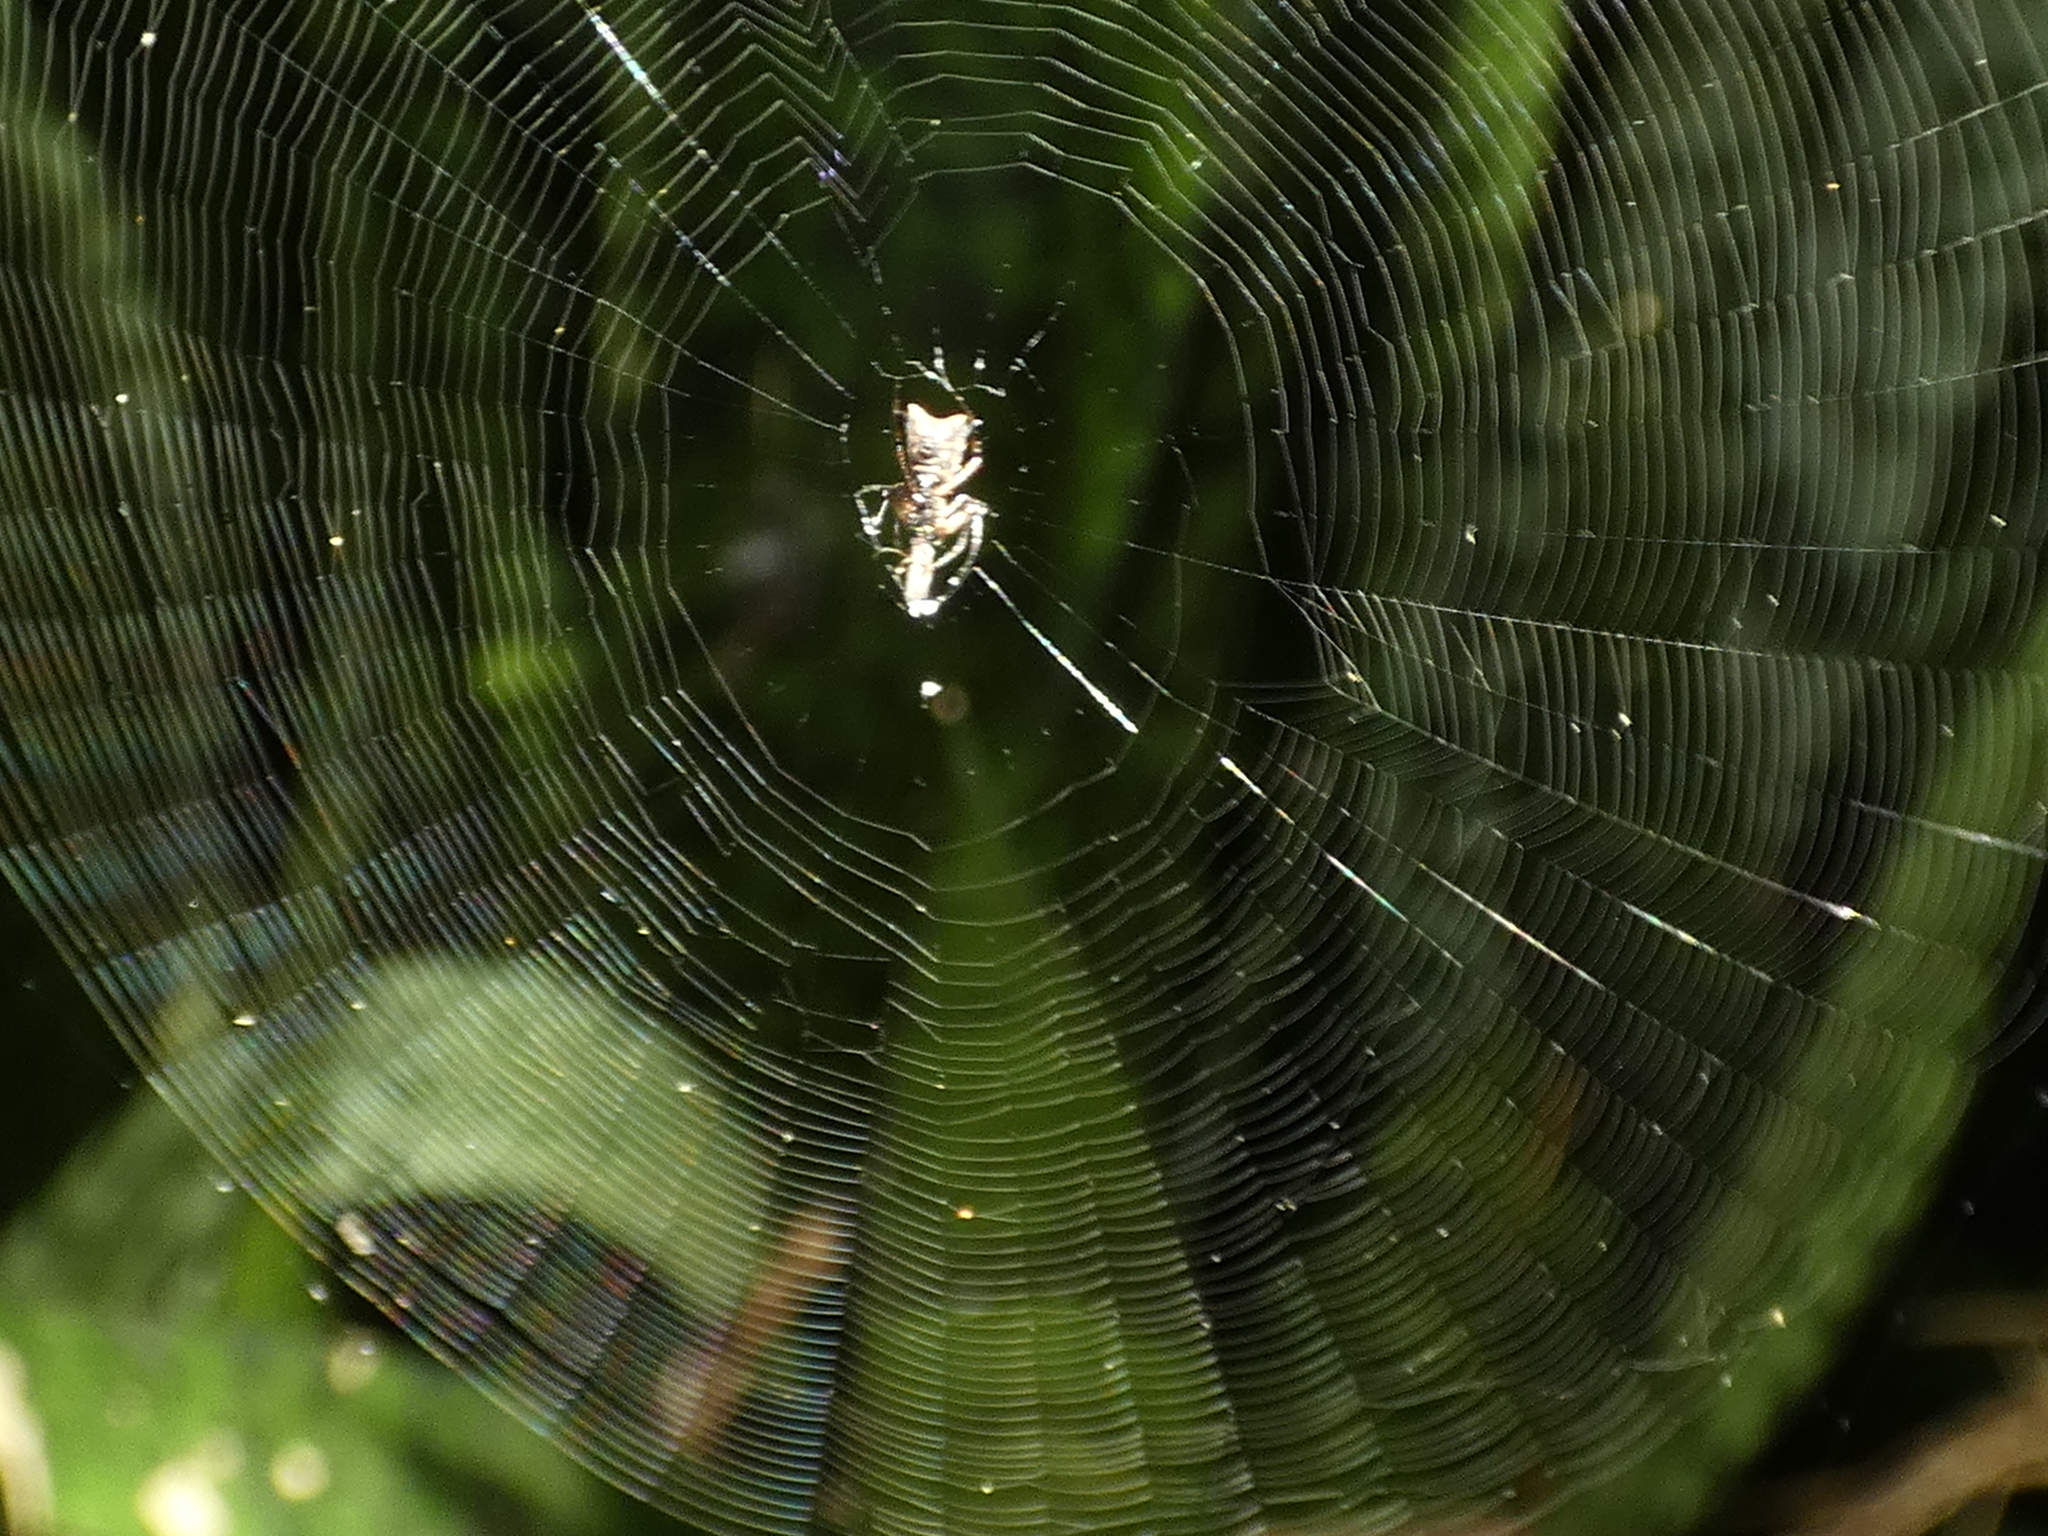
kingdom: Animalia
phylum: Arthropoda
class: Arachnida
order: Araneae
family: Araneidae
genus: Micrathena
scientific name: Micrathena picta
